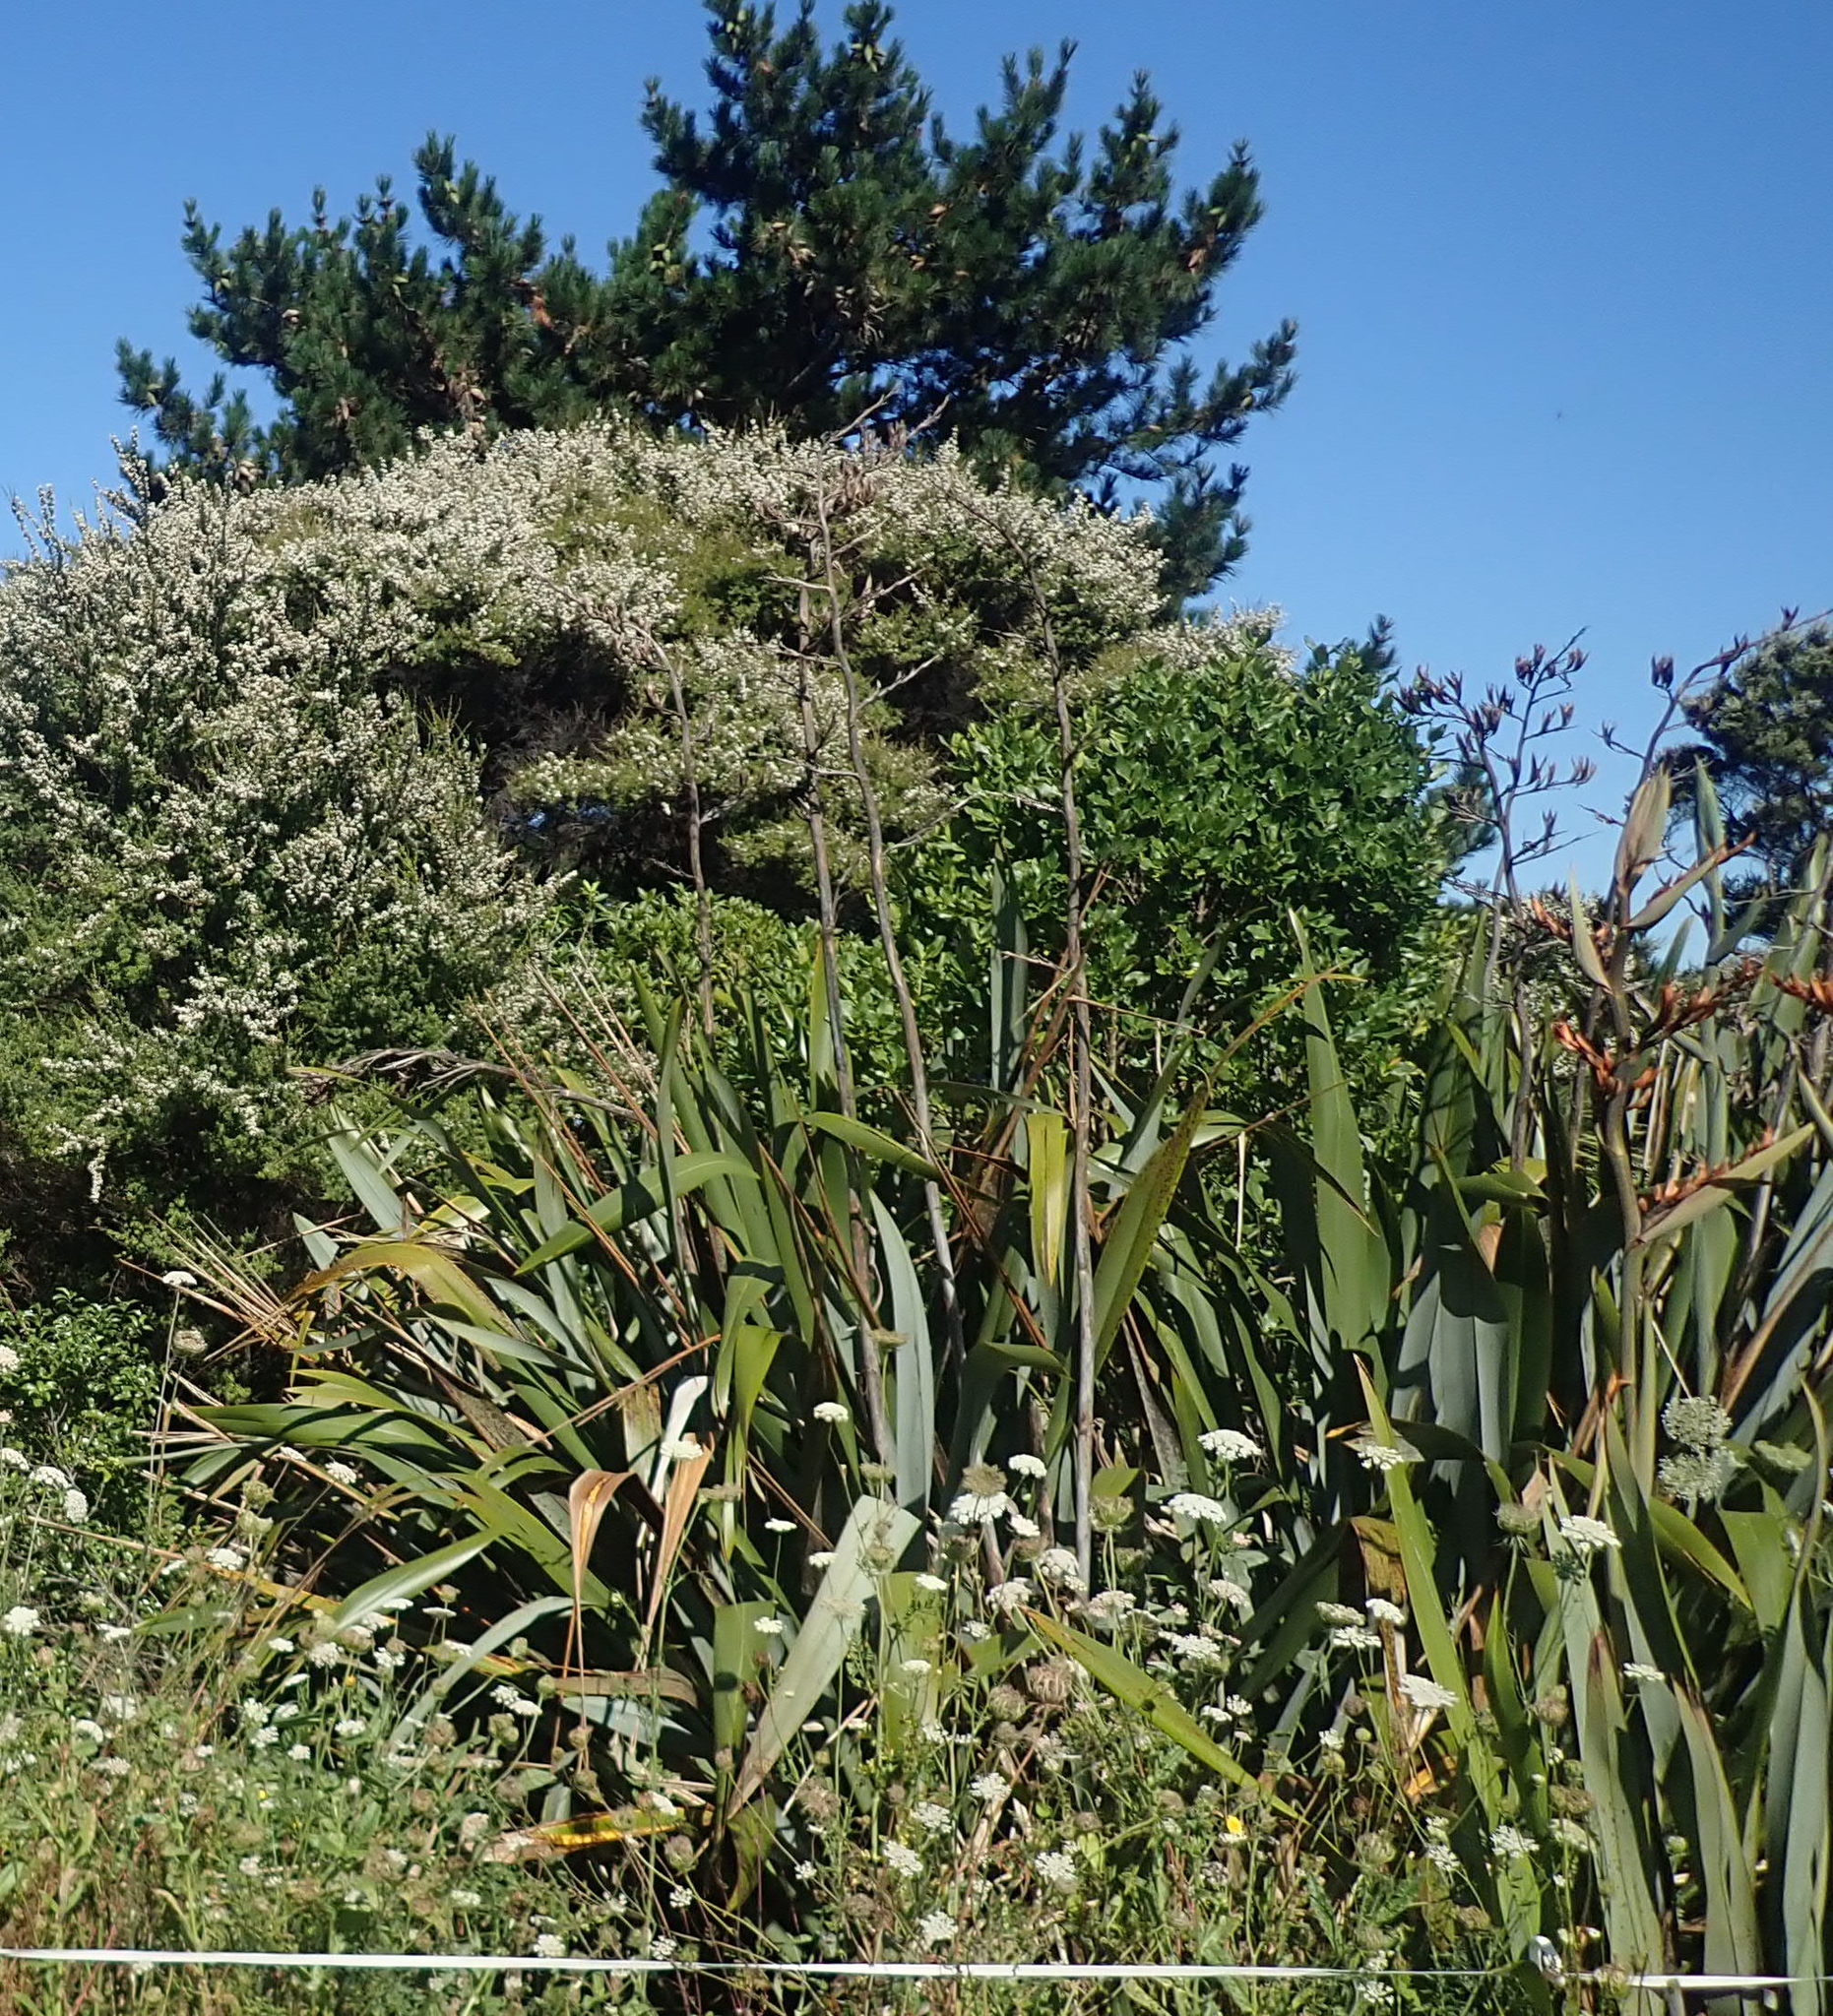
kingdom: Plantae
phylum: Tracheophyta
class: Magnoliopsida
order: Gentianales
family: Rubiaceae
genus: Coprosma
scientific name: Coprosma robusta
